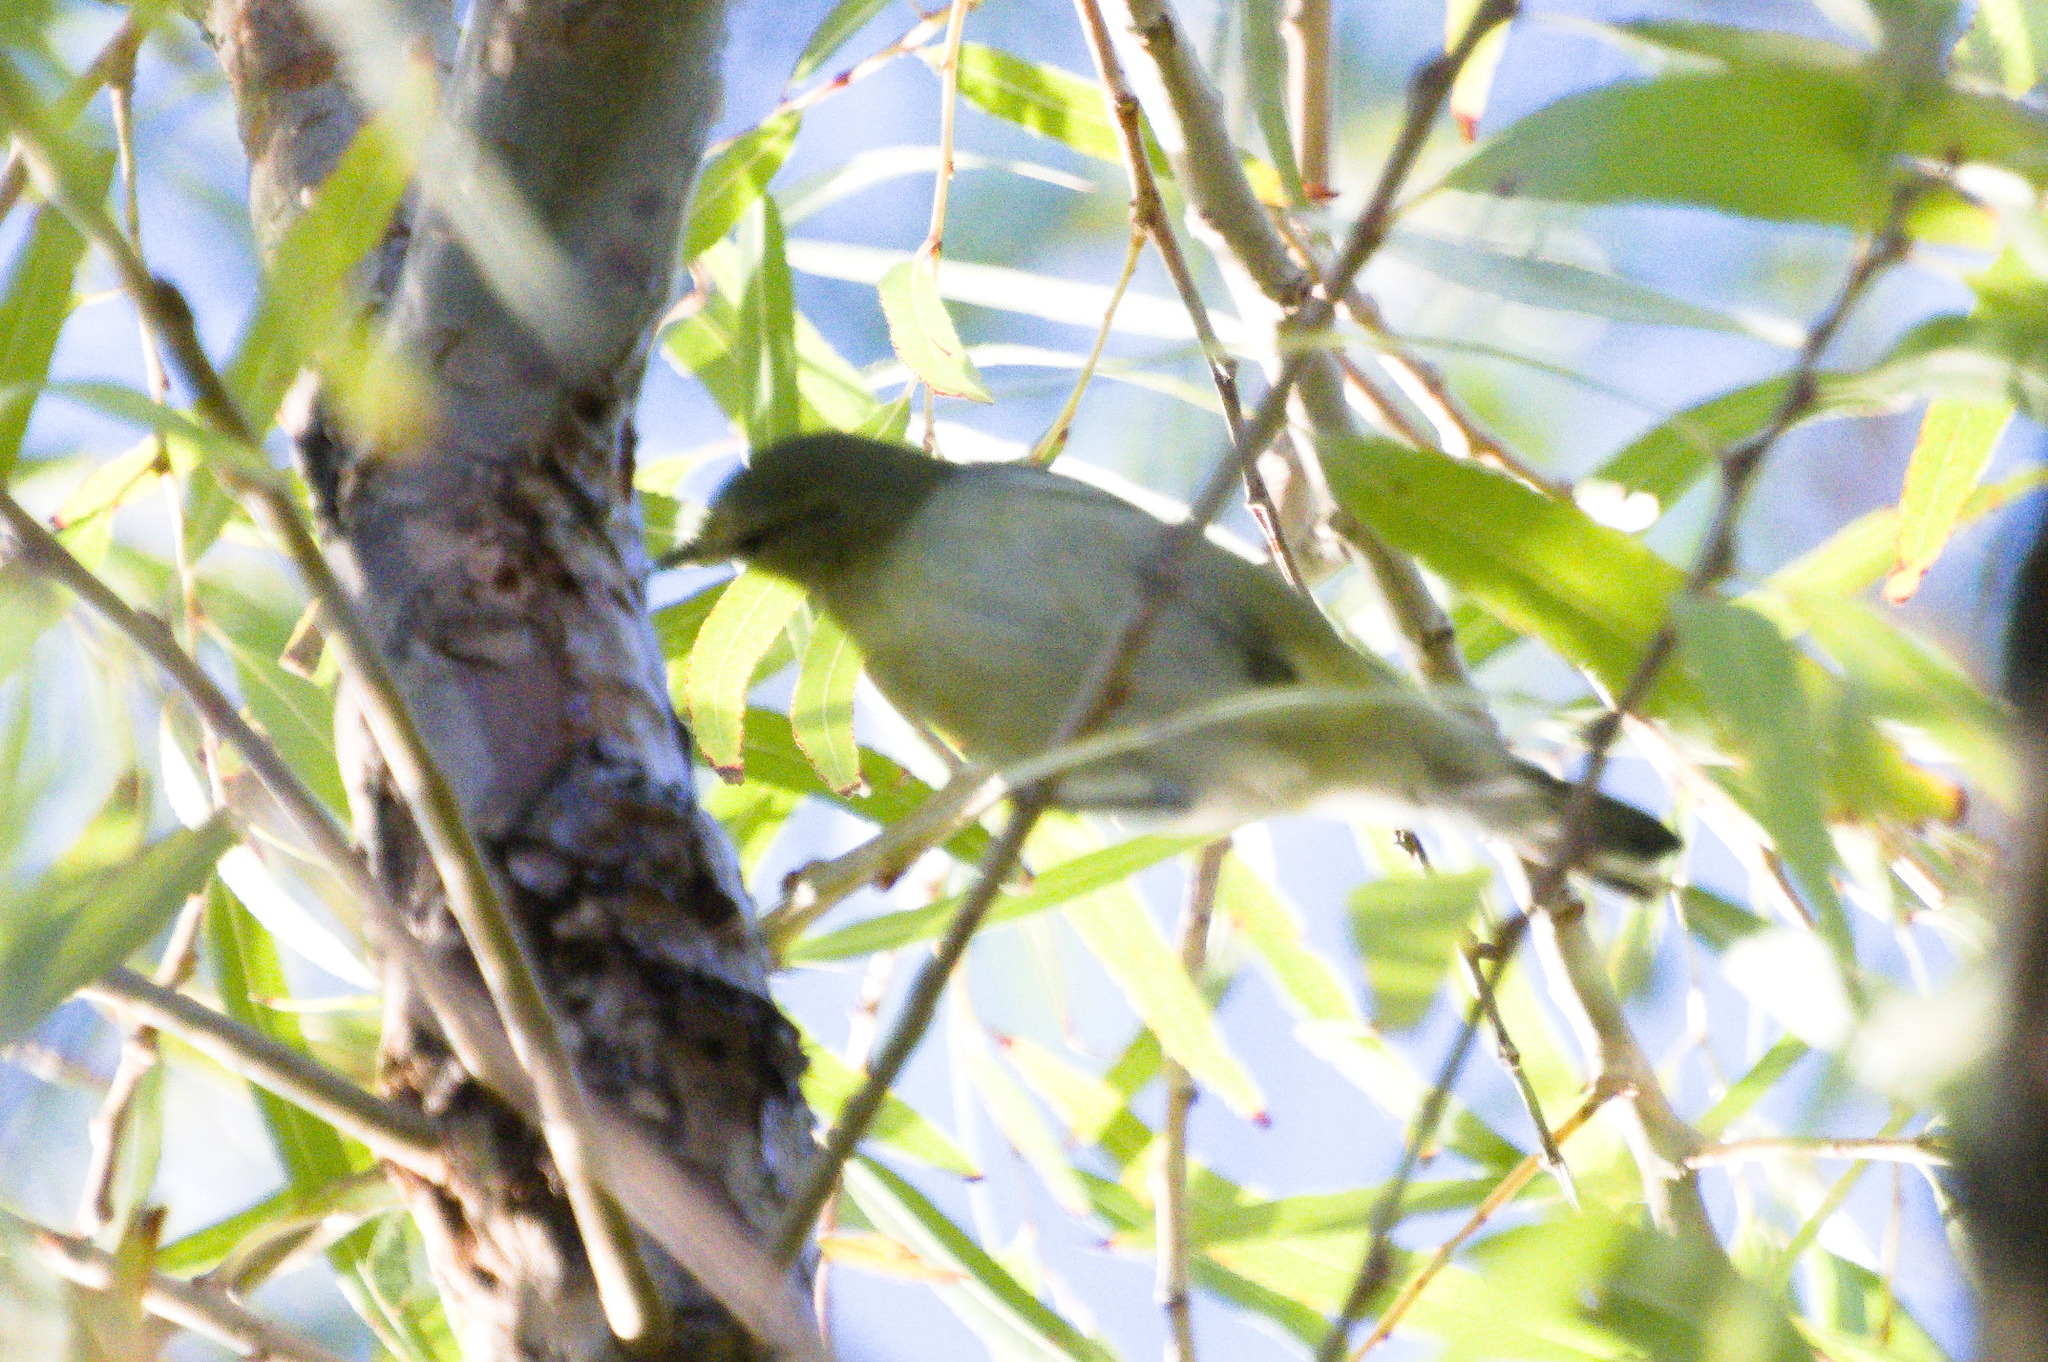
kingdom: Animalia
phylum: Chordata
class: Aves
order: Passeriformes
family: Parulidae
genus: Leiothlypis
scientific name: Leiothlypis peregrina
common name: Tennessee warbler
